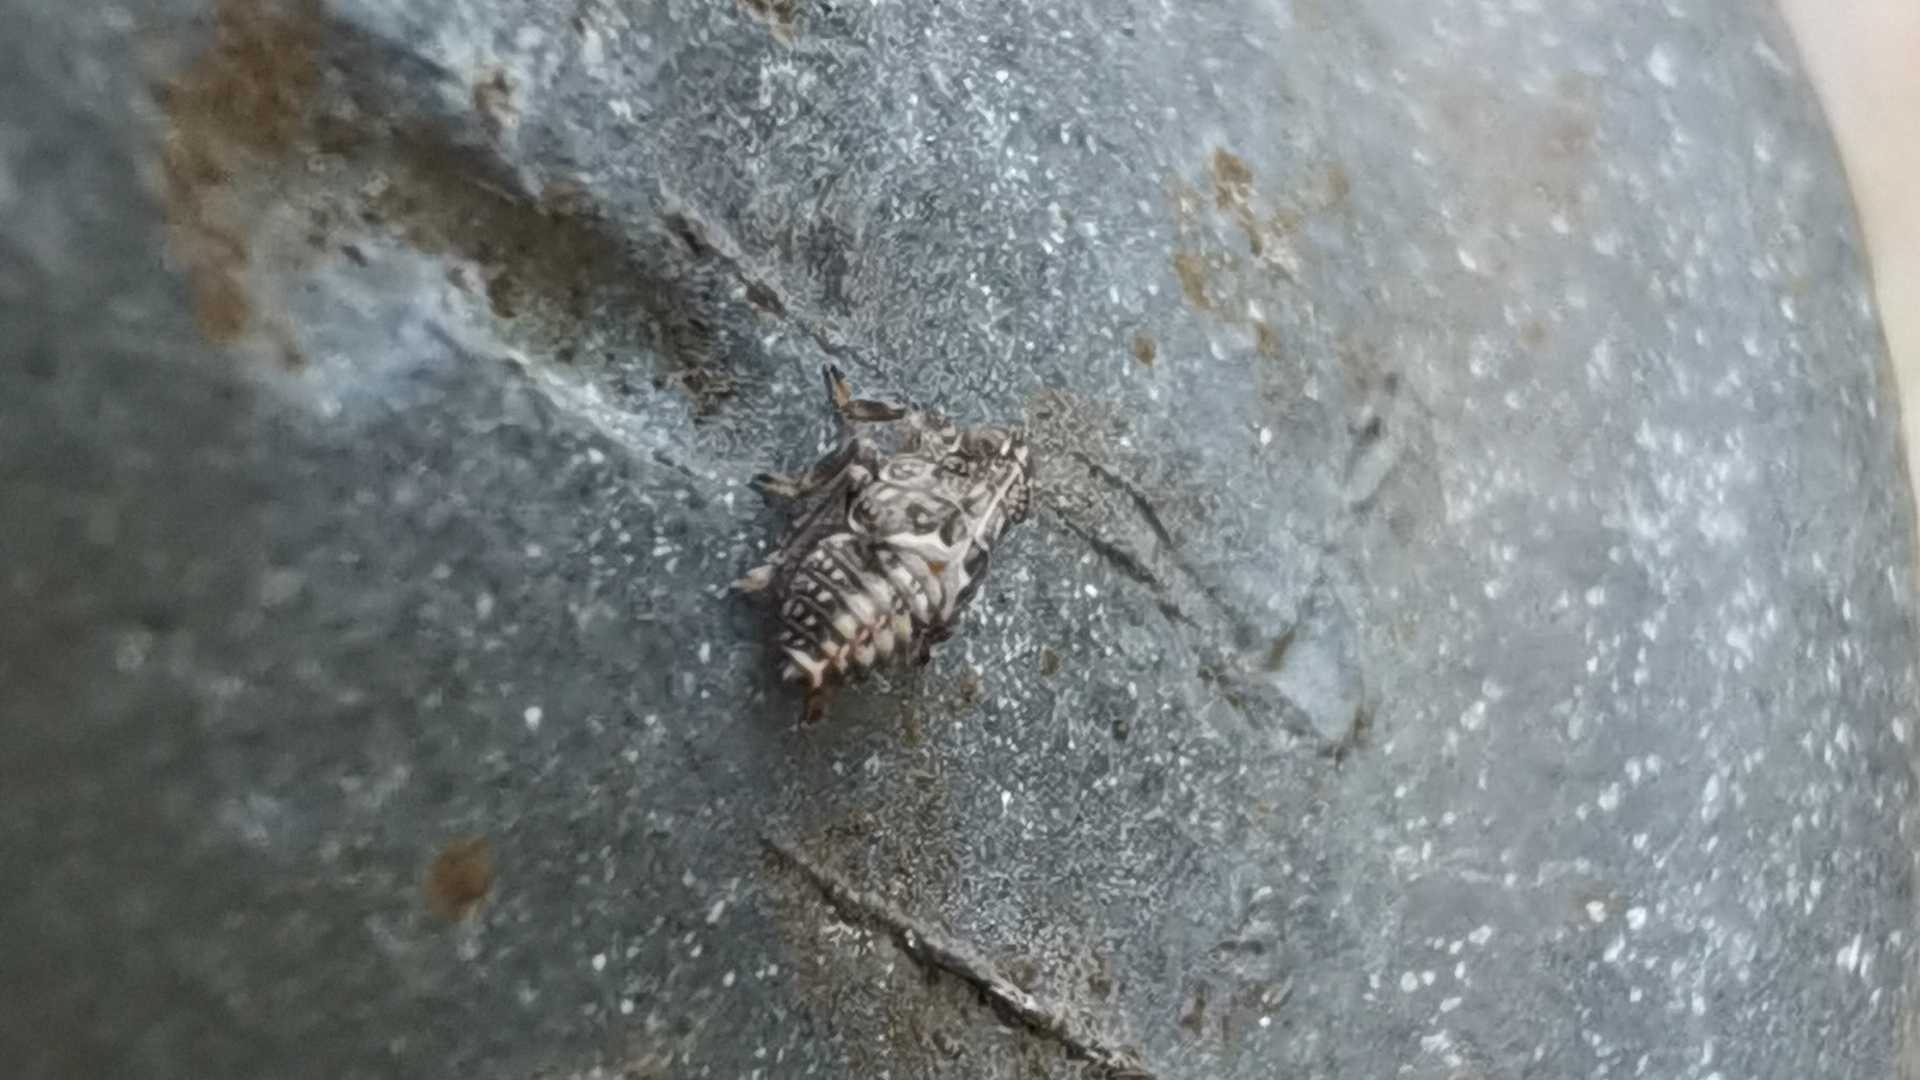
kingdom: Animalia
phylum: Arthropoda
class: Insecta
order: Hemiptera
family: Issidae
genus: Issus
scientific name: Issus
